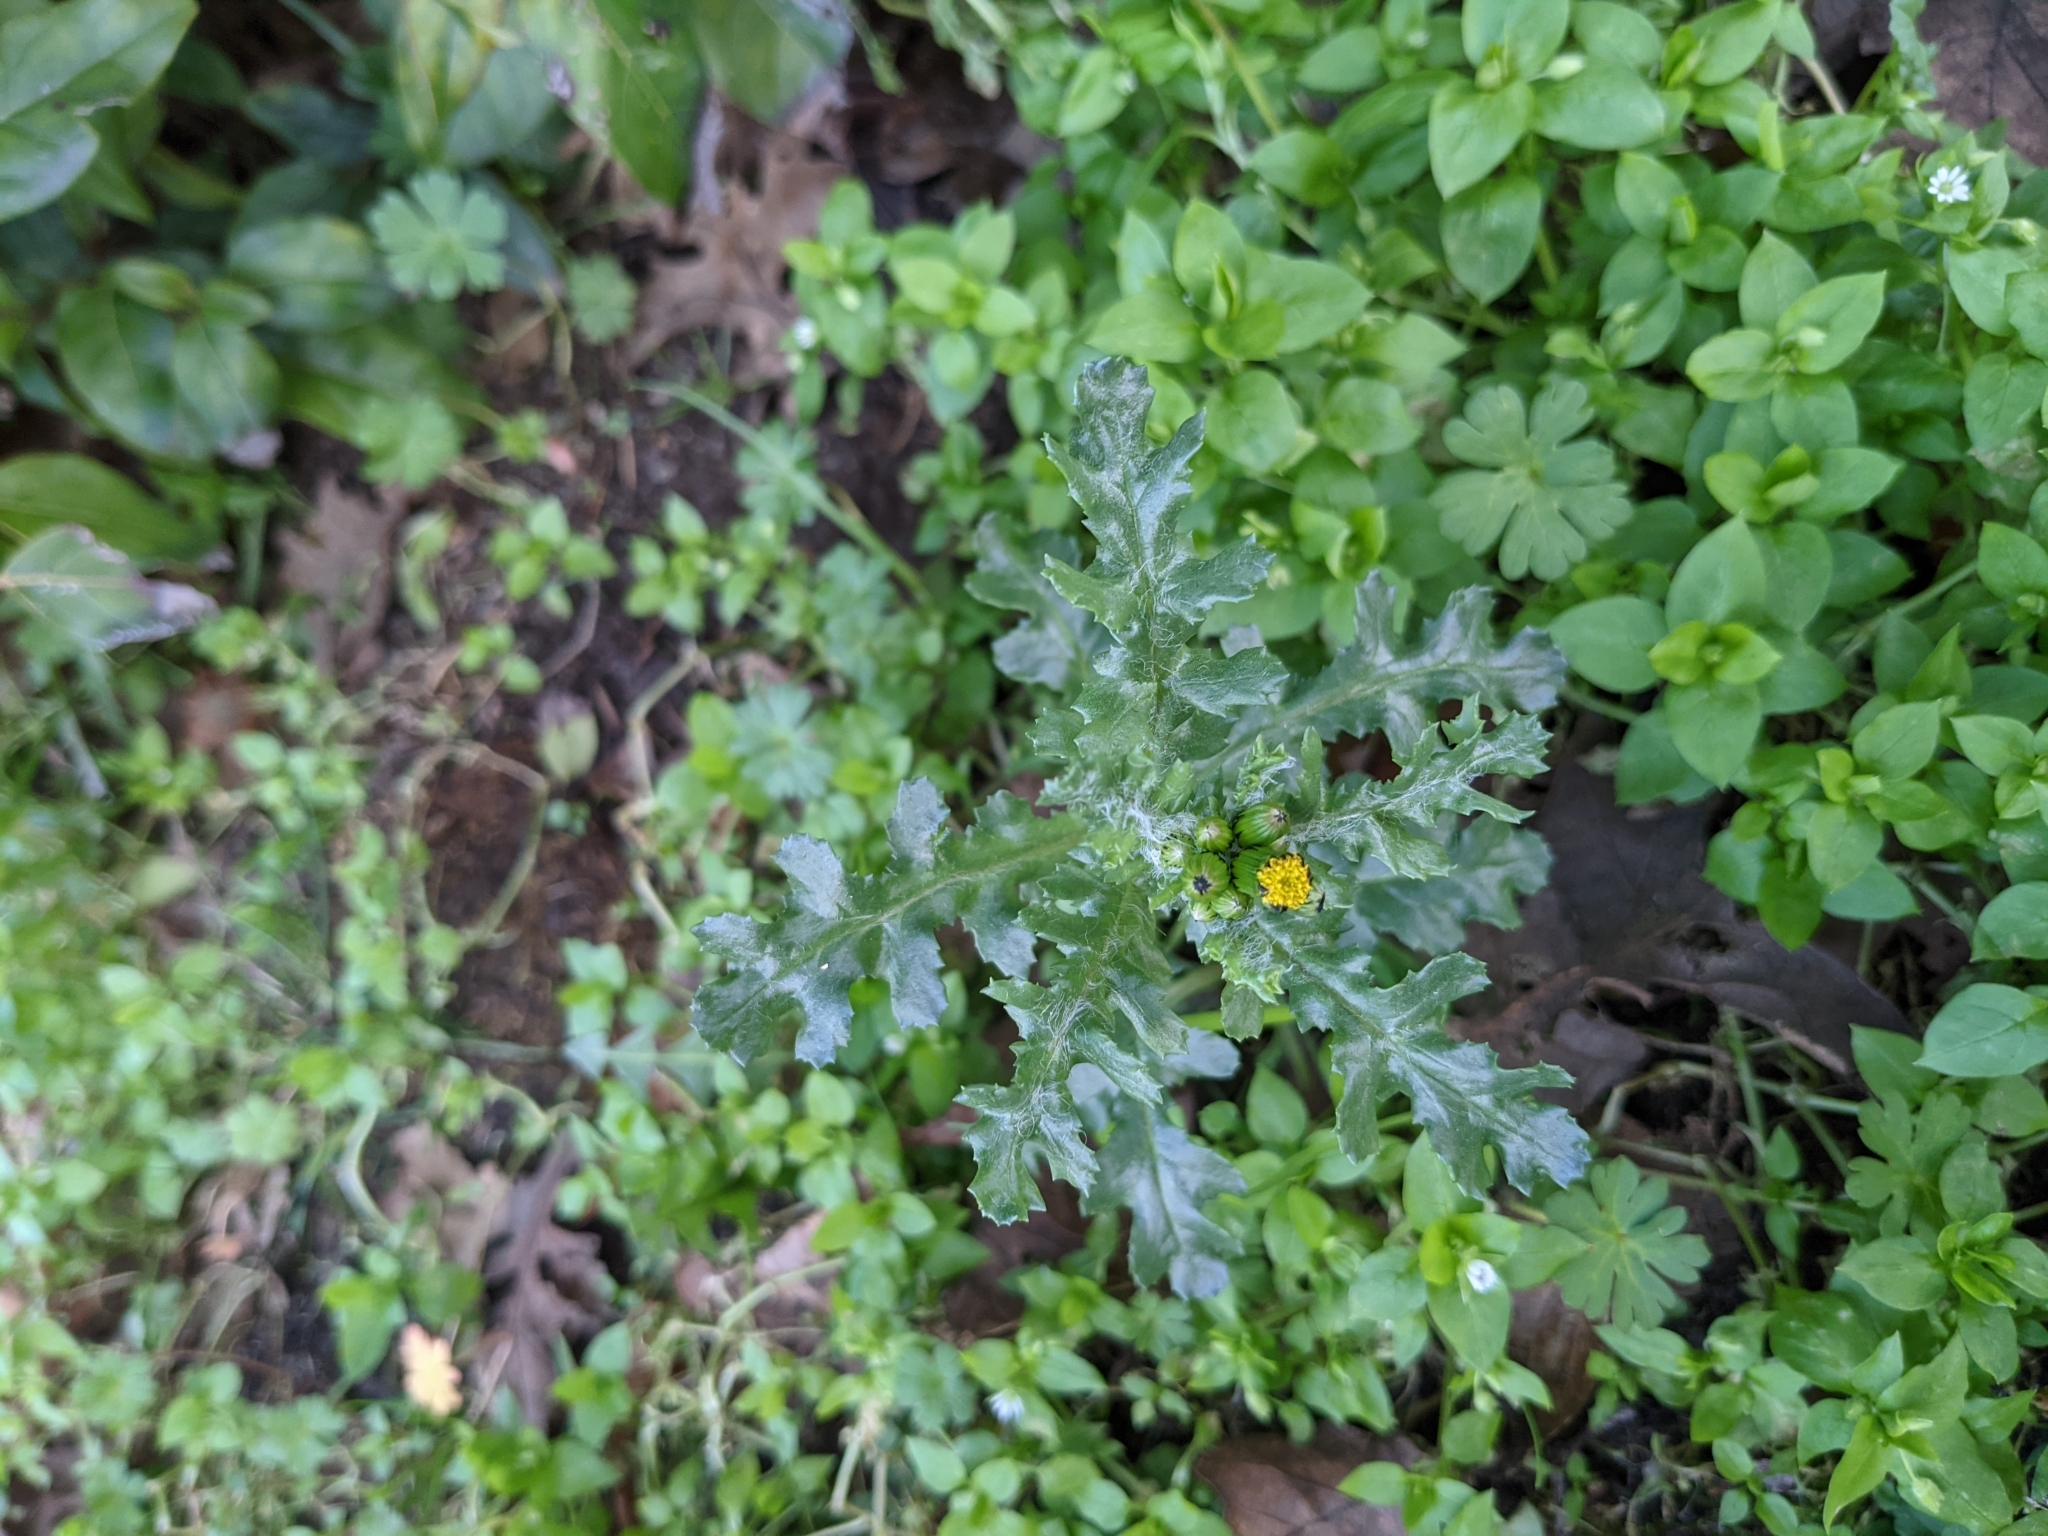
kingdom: Plantae
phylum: Tracheophyta
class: Magnoliopsida
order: Asterales
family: Asteraceae
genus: Senecio
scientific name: Senecio vulgaris
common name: Old-man-in-the-spring
